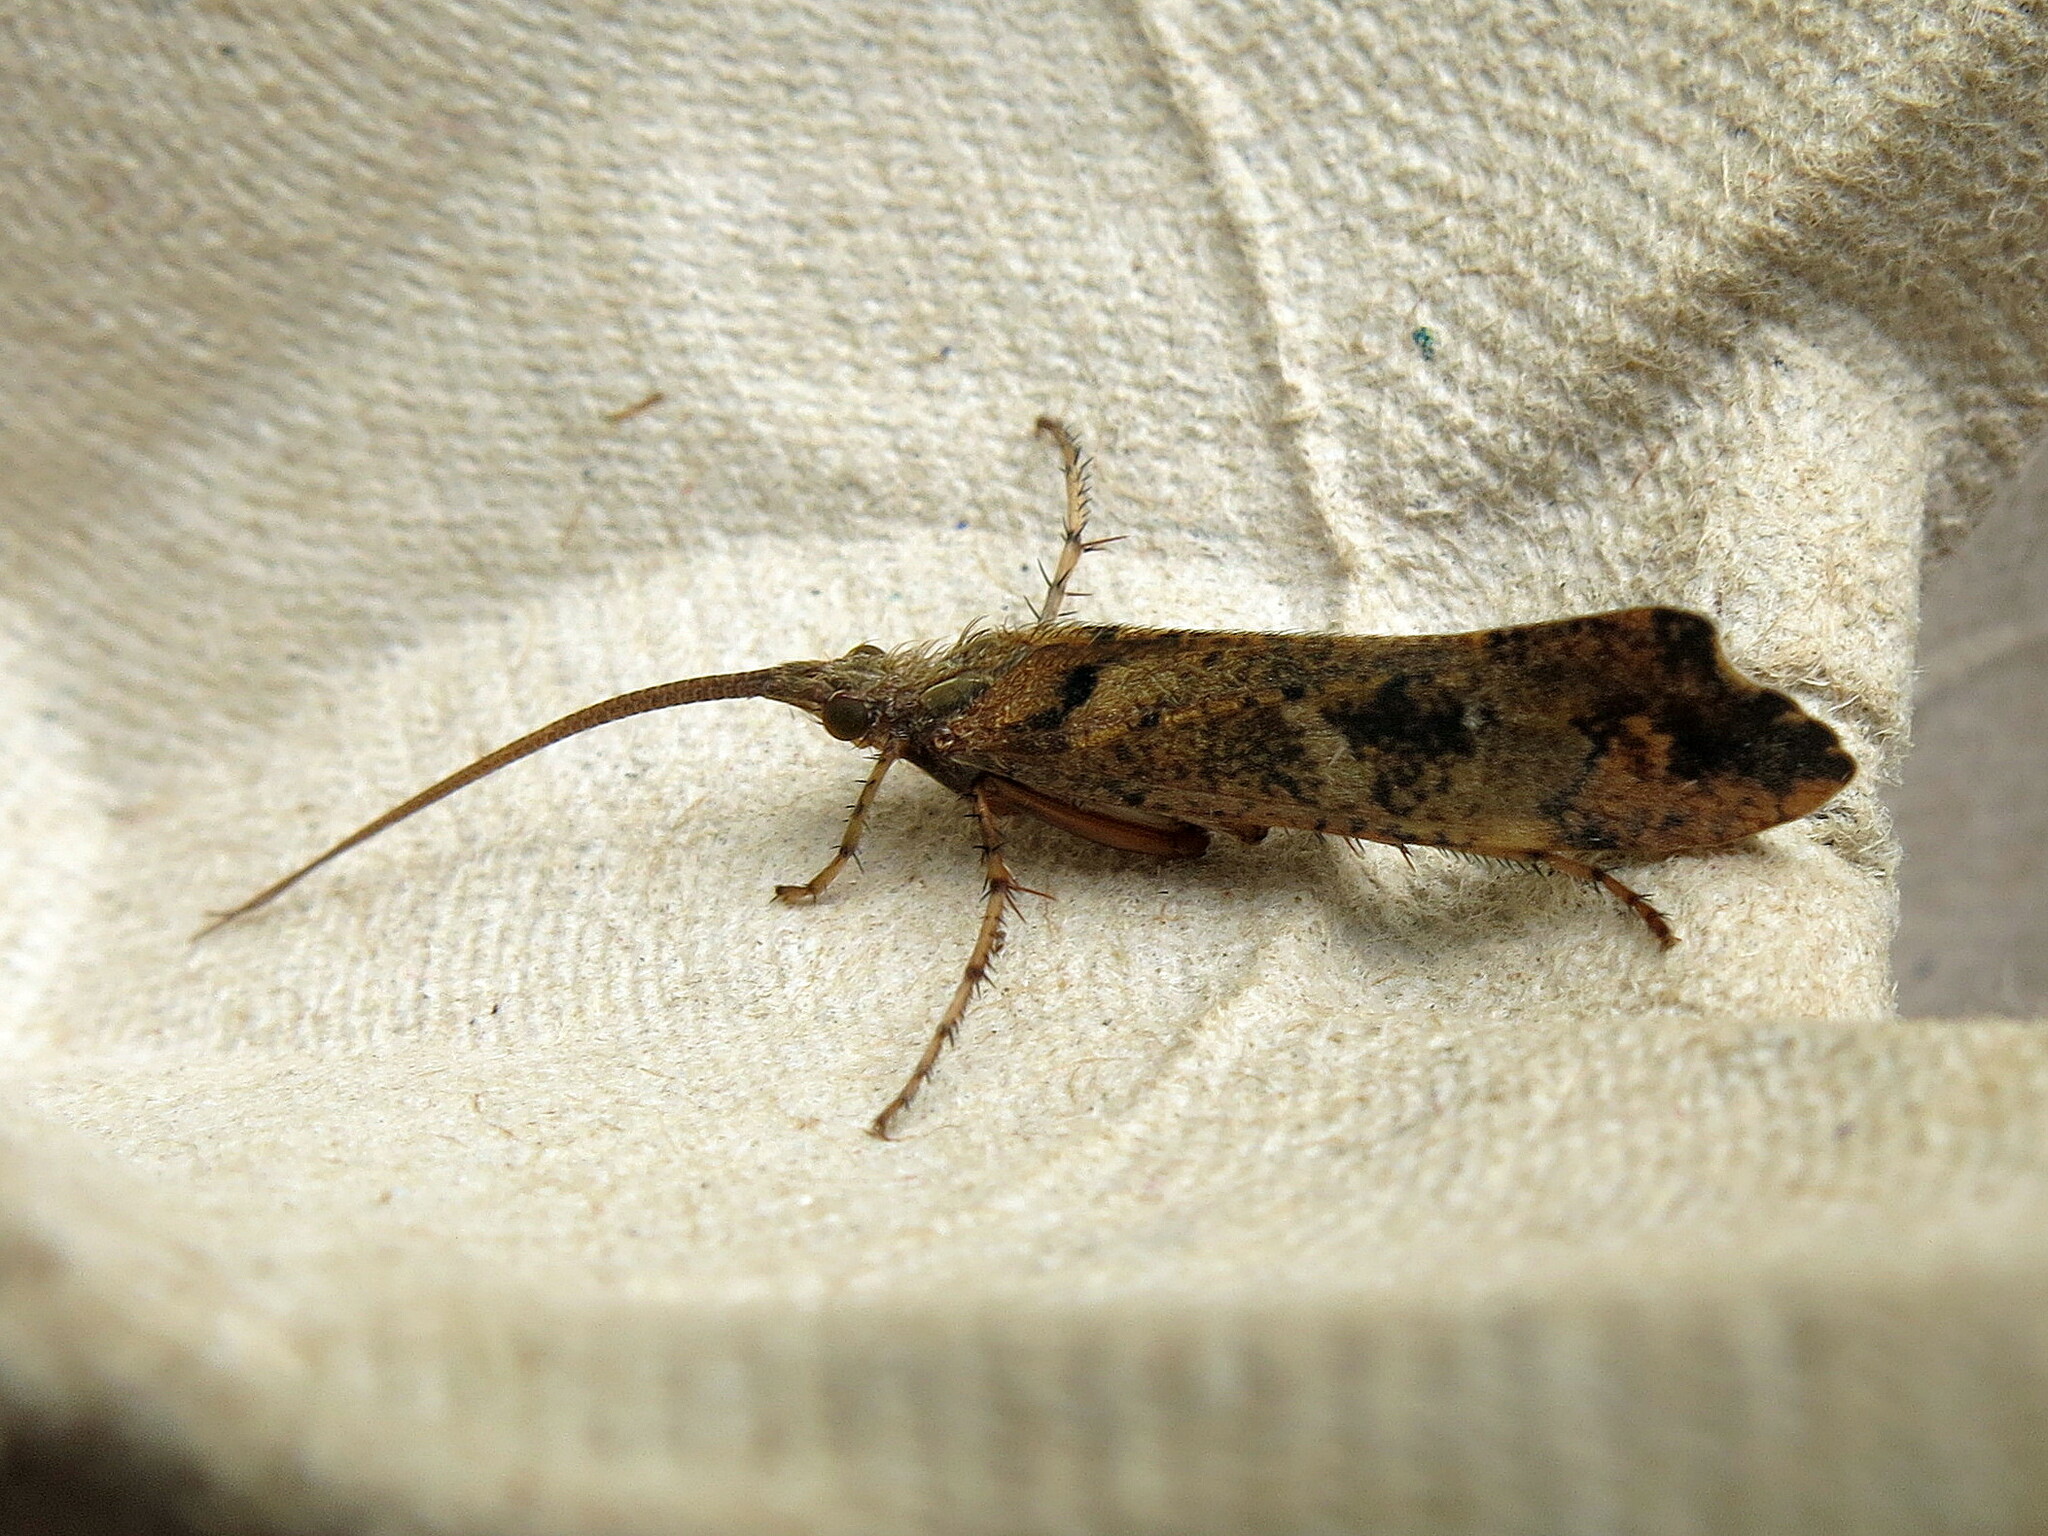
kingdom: Animalia
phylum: Arthropoda
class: Insecta
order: Trichoptera
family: Limnephilidae
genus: Glyphotaelius
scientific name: Glyphotaelius pellucidus
